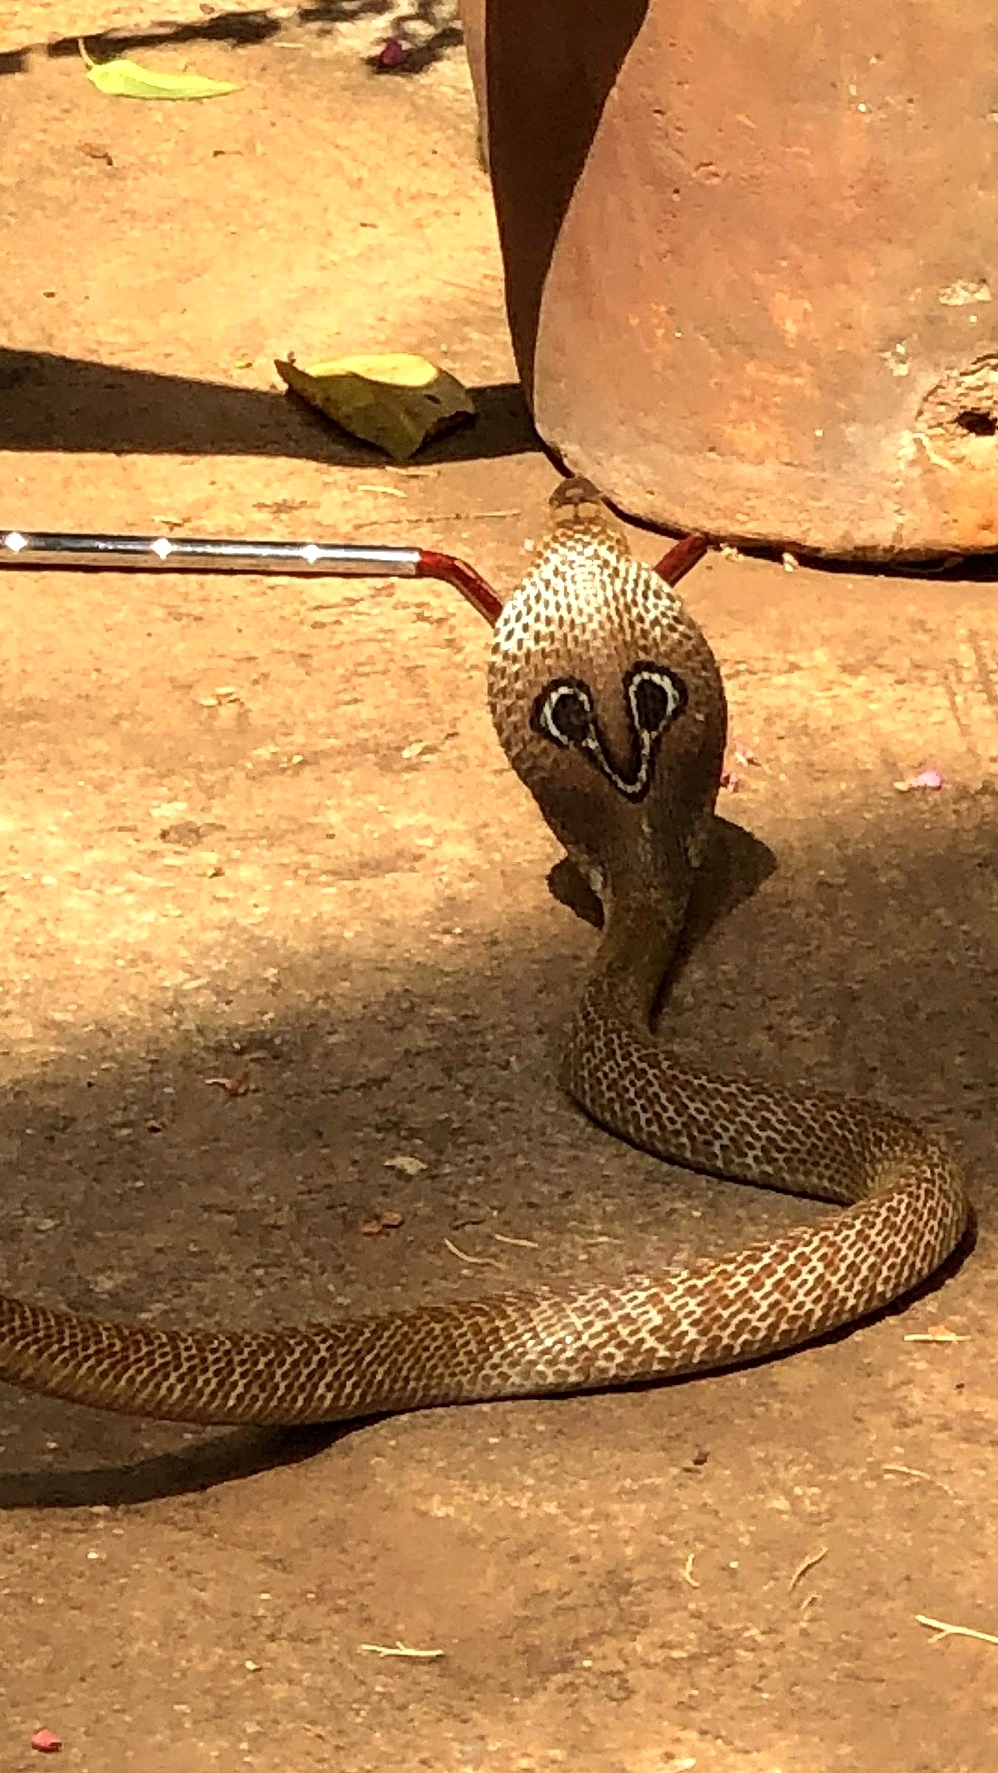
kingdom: Animalia
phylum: Chordata
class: Squamata
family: Elapidae
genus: Naja
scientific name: Naja naja
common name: Indian cobra
